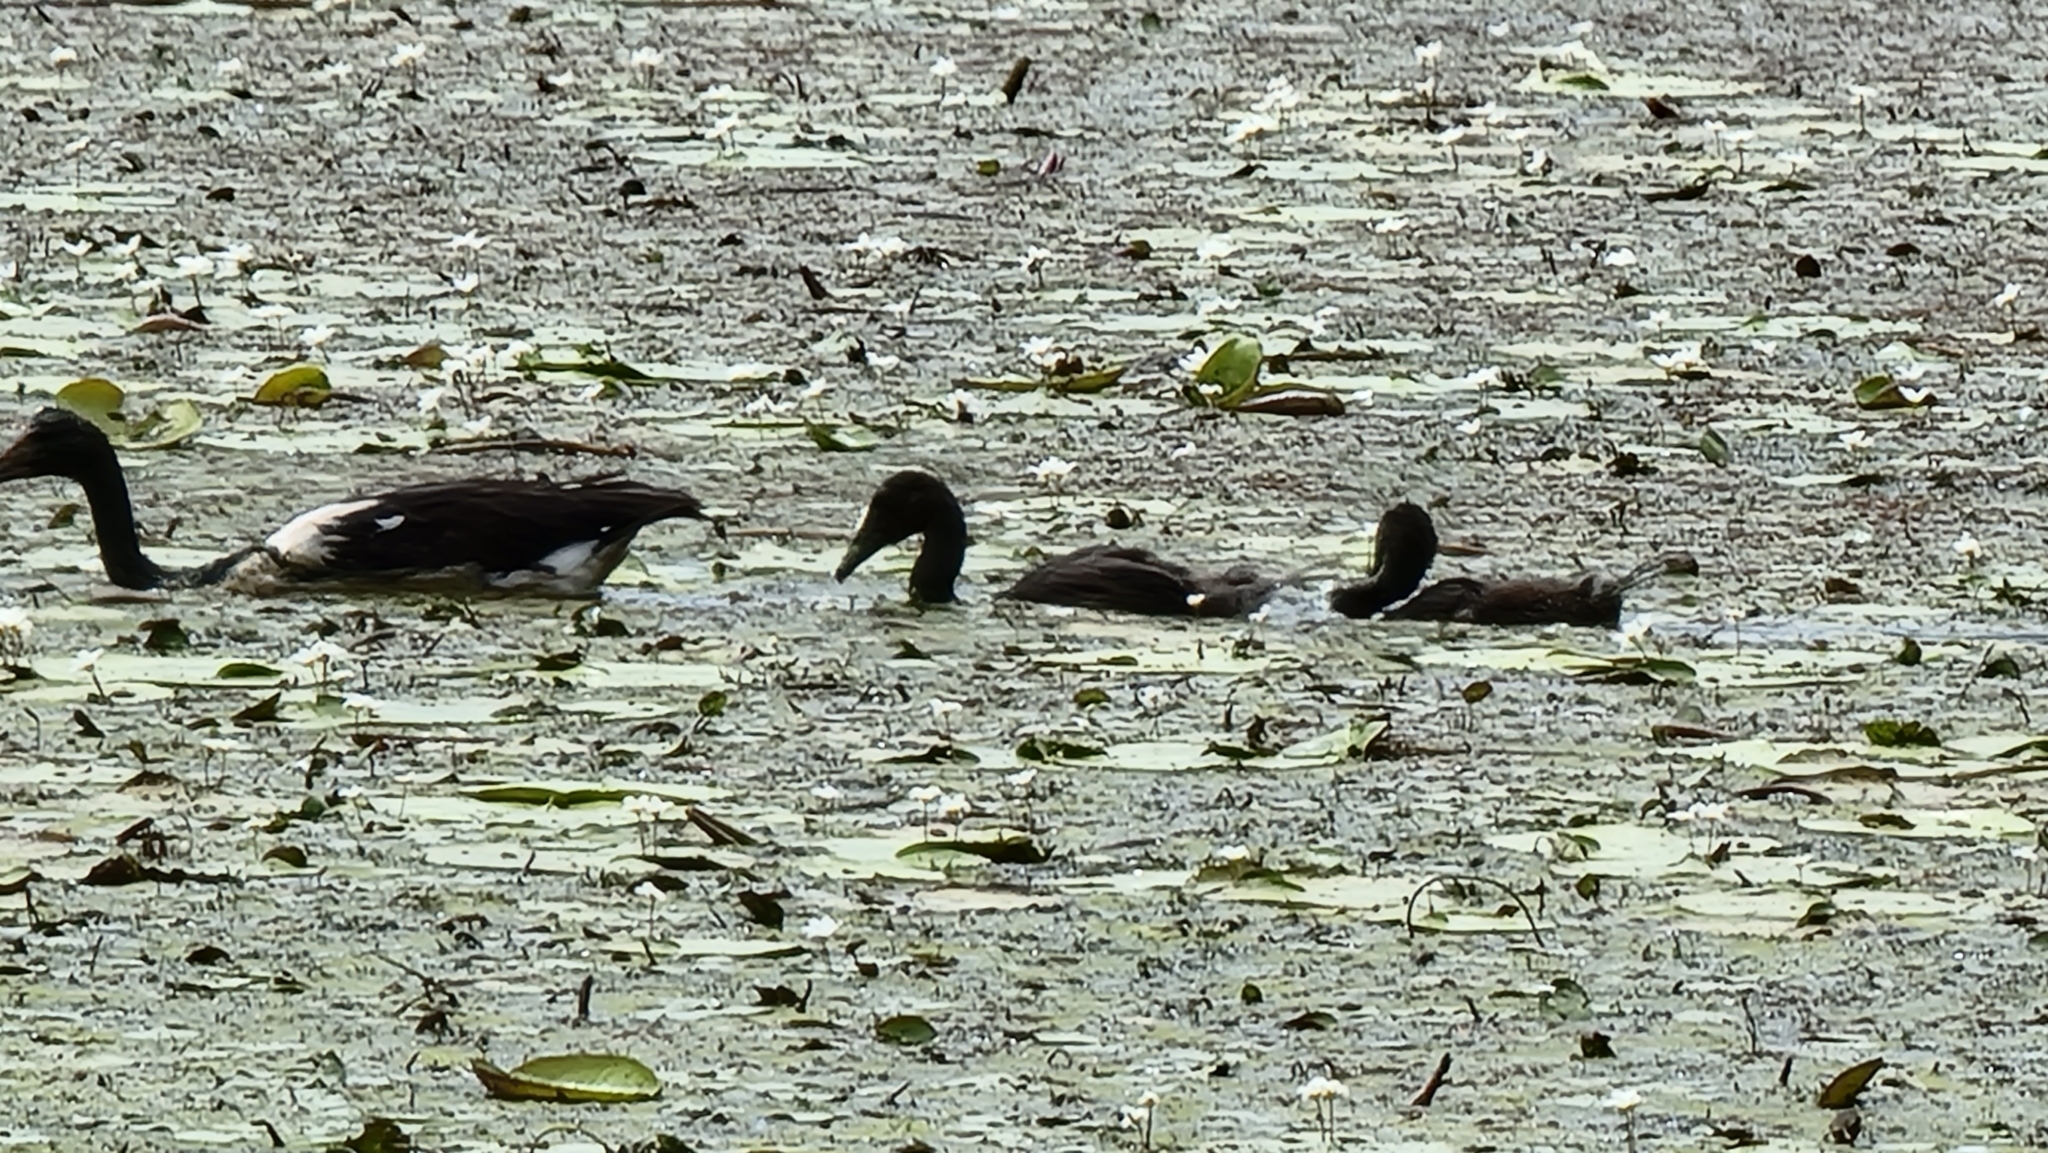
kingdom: Animalia
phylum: Chordata
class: Aves
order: Anseriformes
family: Anseranatidae
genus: Anseranas
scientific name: Anseranas semipalmata
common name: Magpie goose
